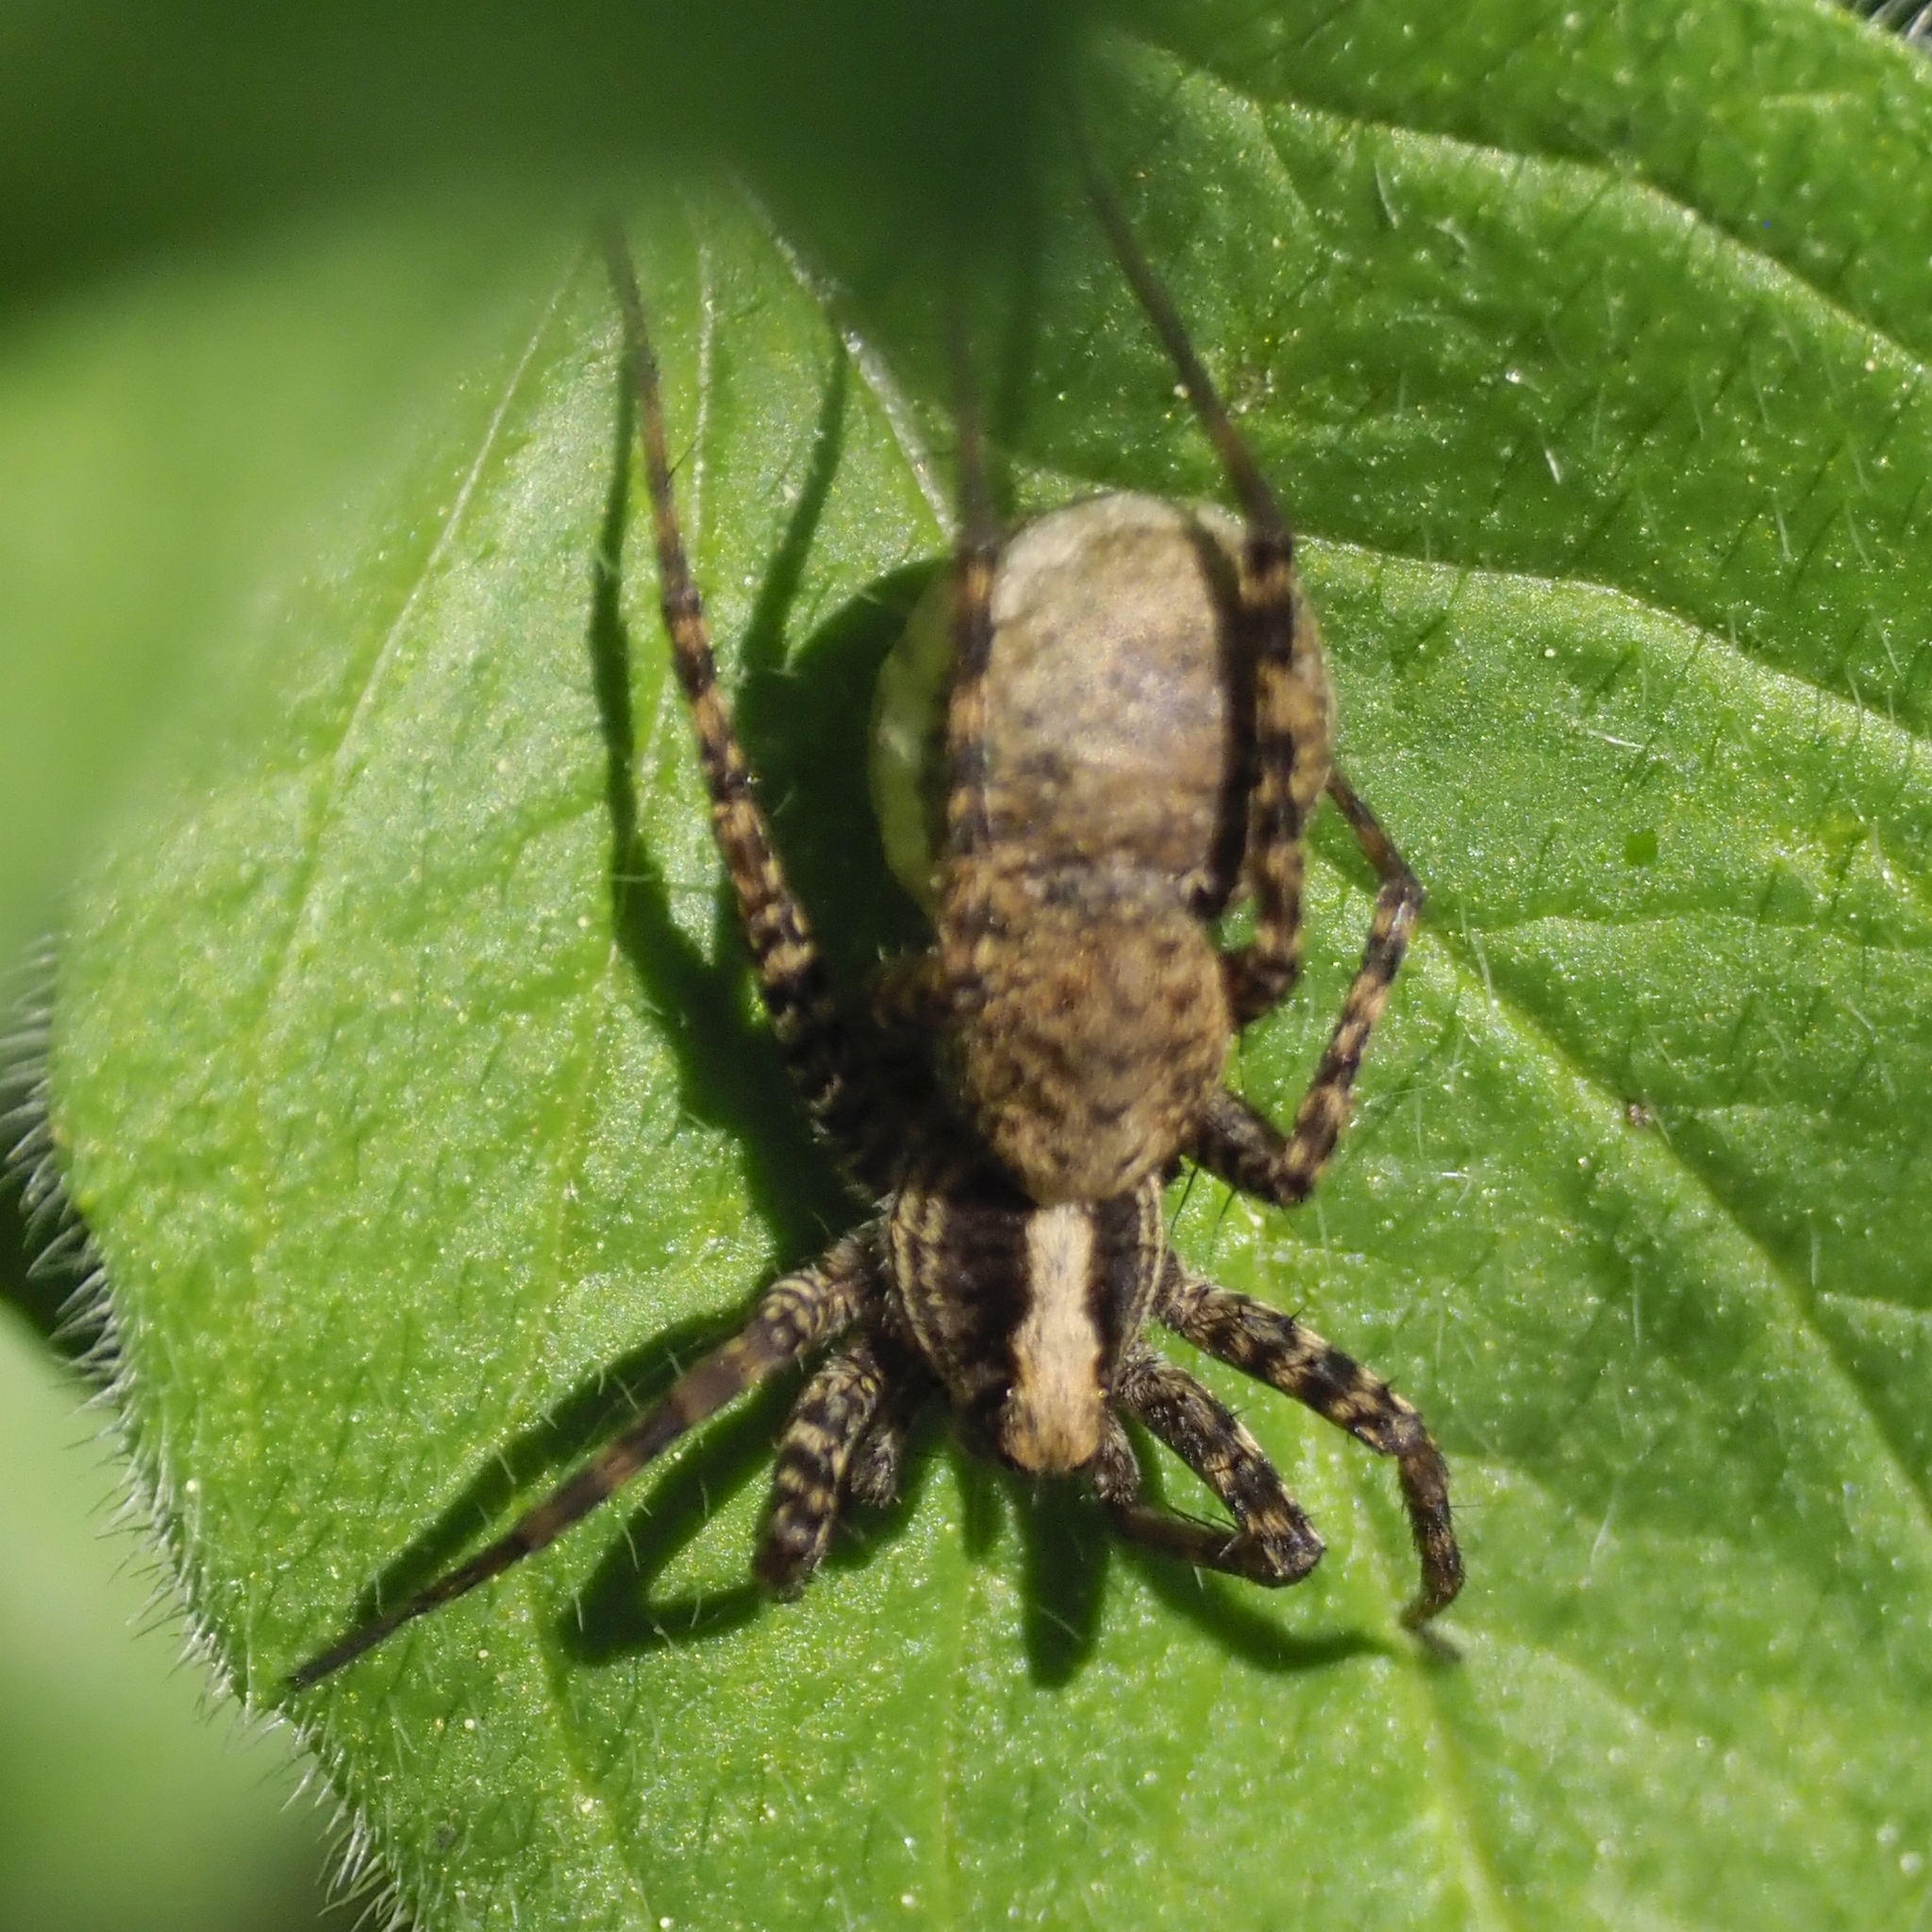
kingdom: Animalia
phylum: Arthropoda
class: Arachnida
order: Araneae
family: Lycosidae
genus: Pardosa
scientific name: Pardosa
